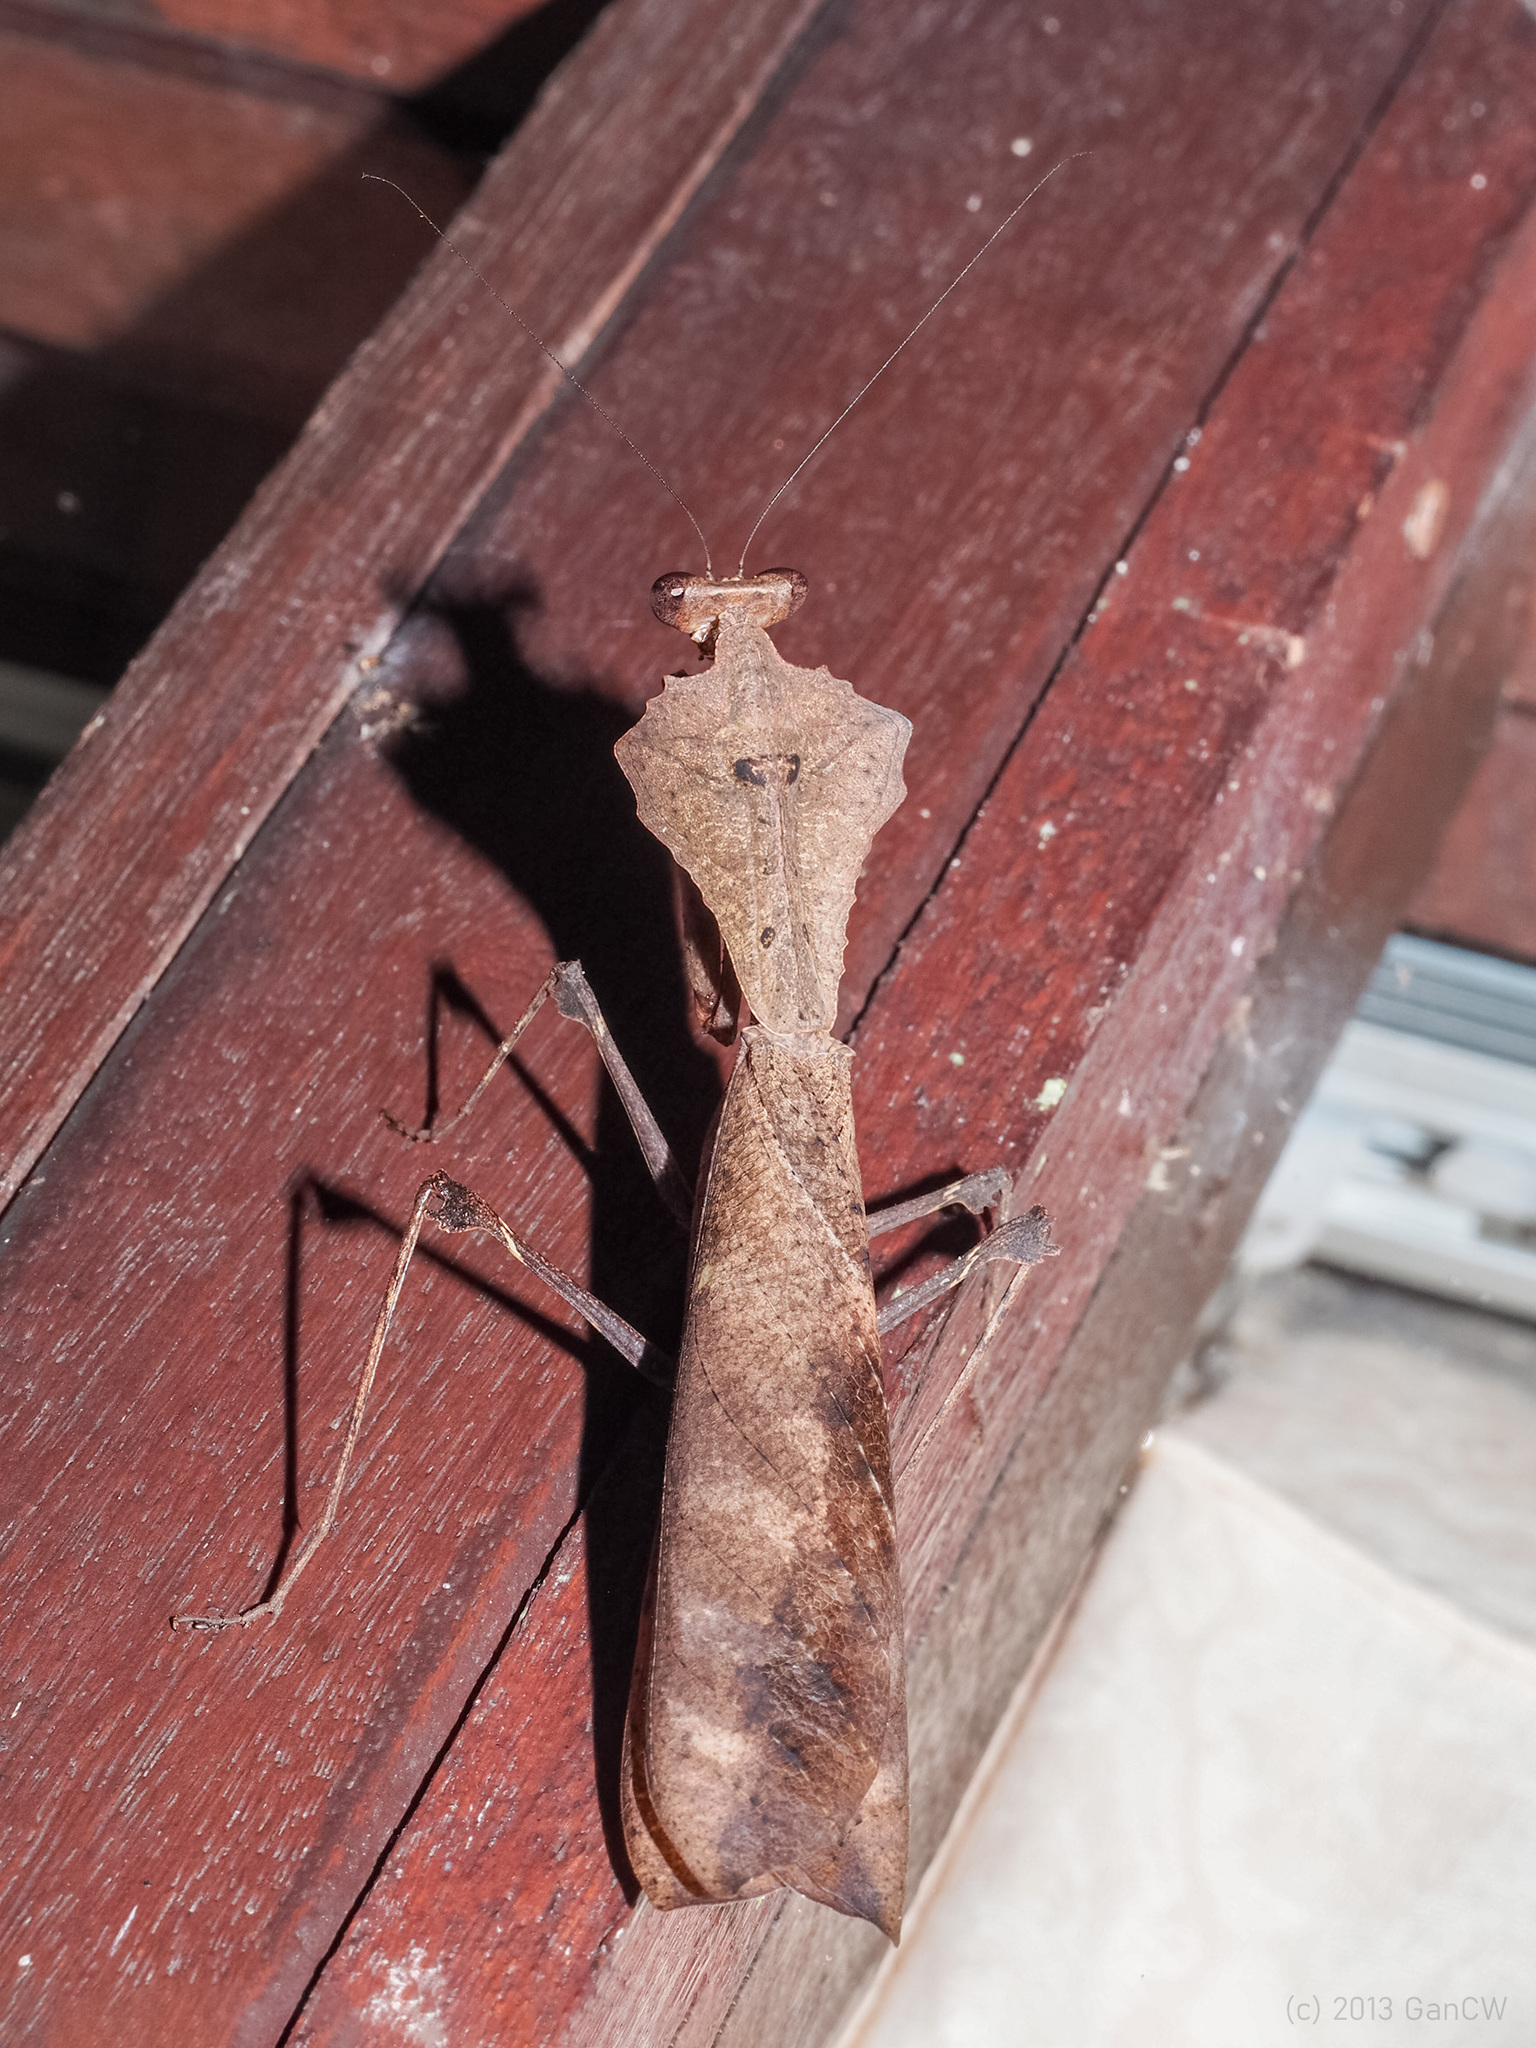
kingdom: Animalia
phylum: Arthropoda
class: Insecta
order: Mantodea
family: Deroplatyidae
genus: Deroplatys
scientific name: Deroplatys desiccata
